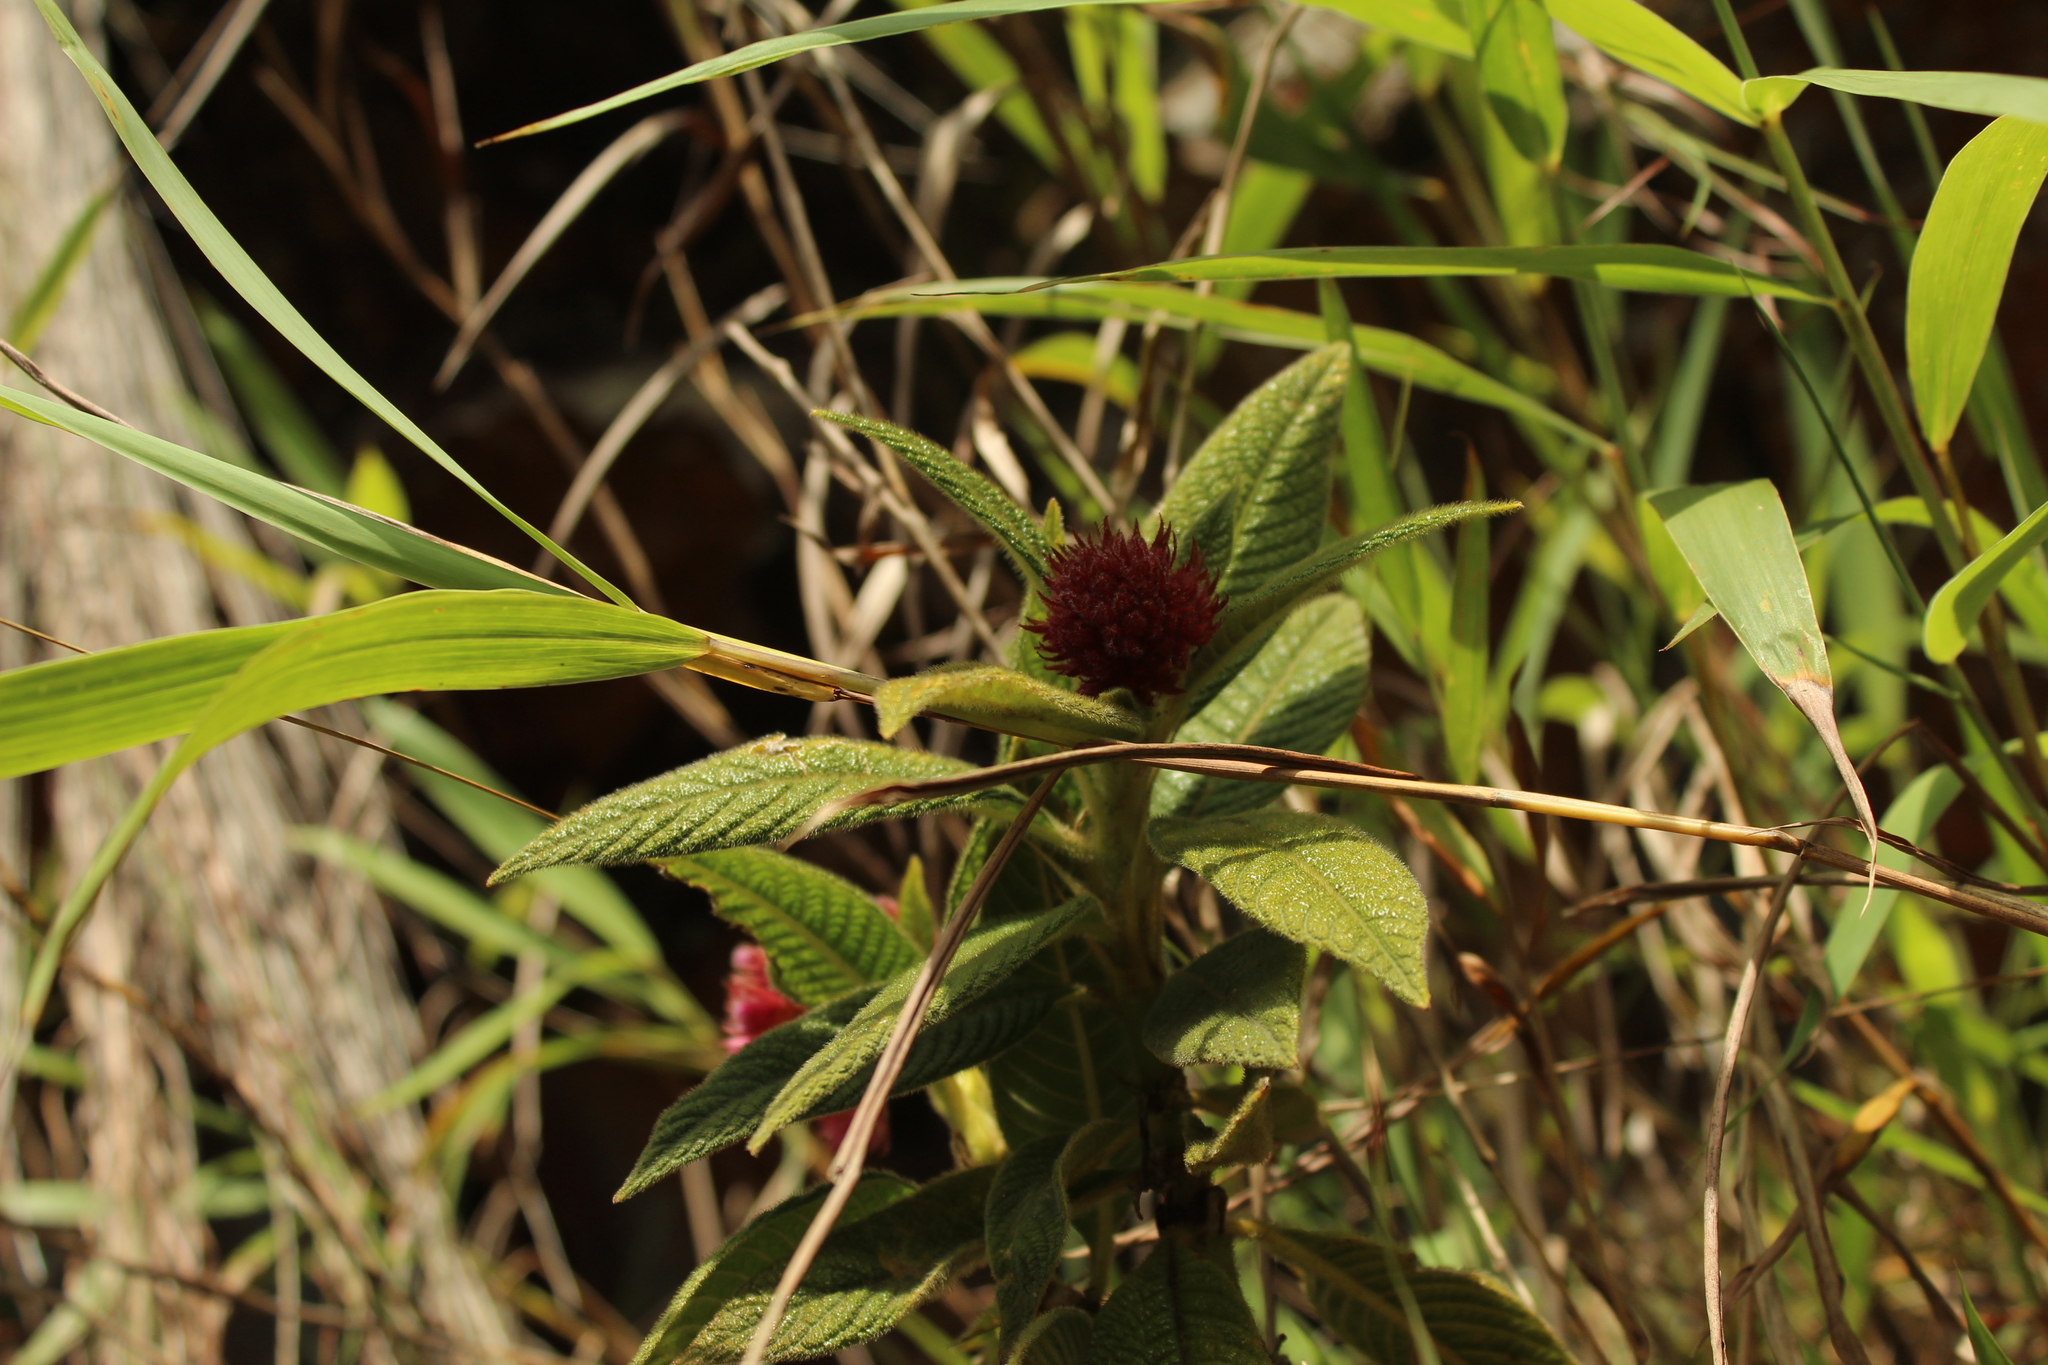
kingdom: Plantae
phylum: Tracheophyta
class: Magnoliopsida
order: Gentianales
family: Rubiaceae
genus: Palicourea
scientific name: Palicourea erythrocephala
